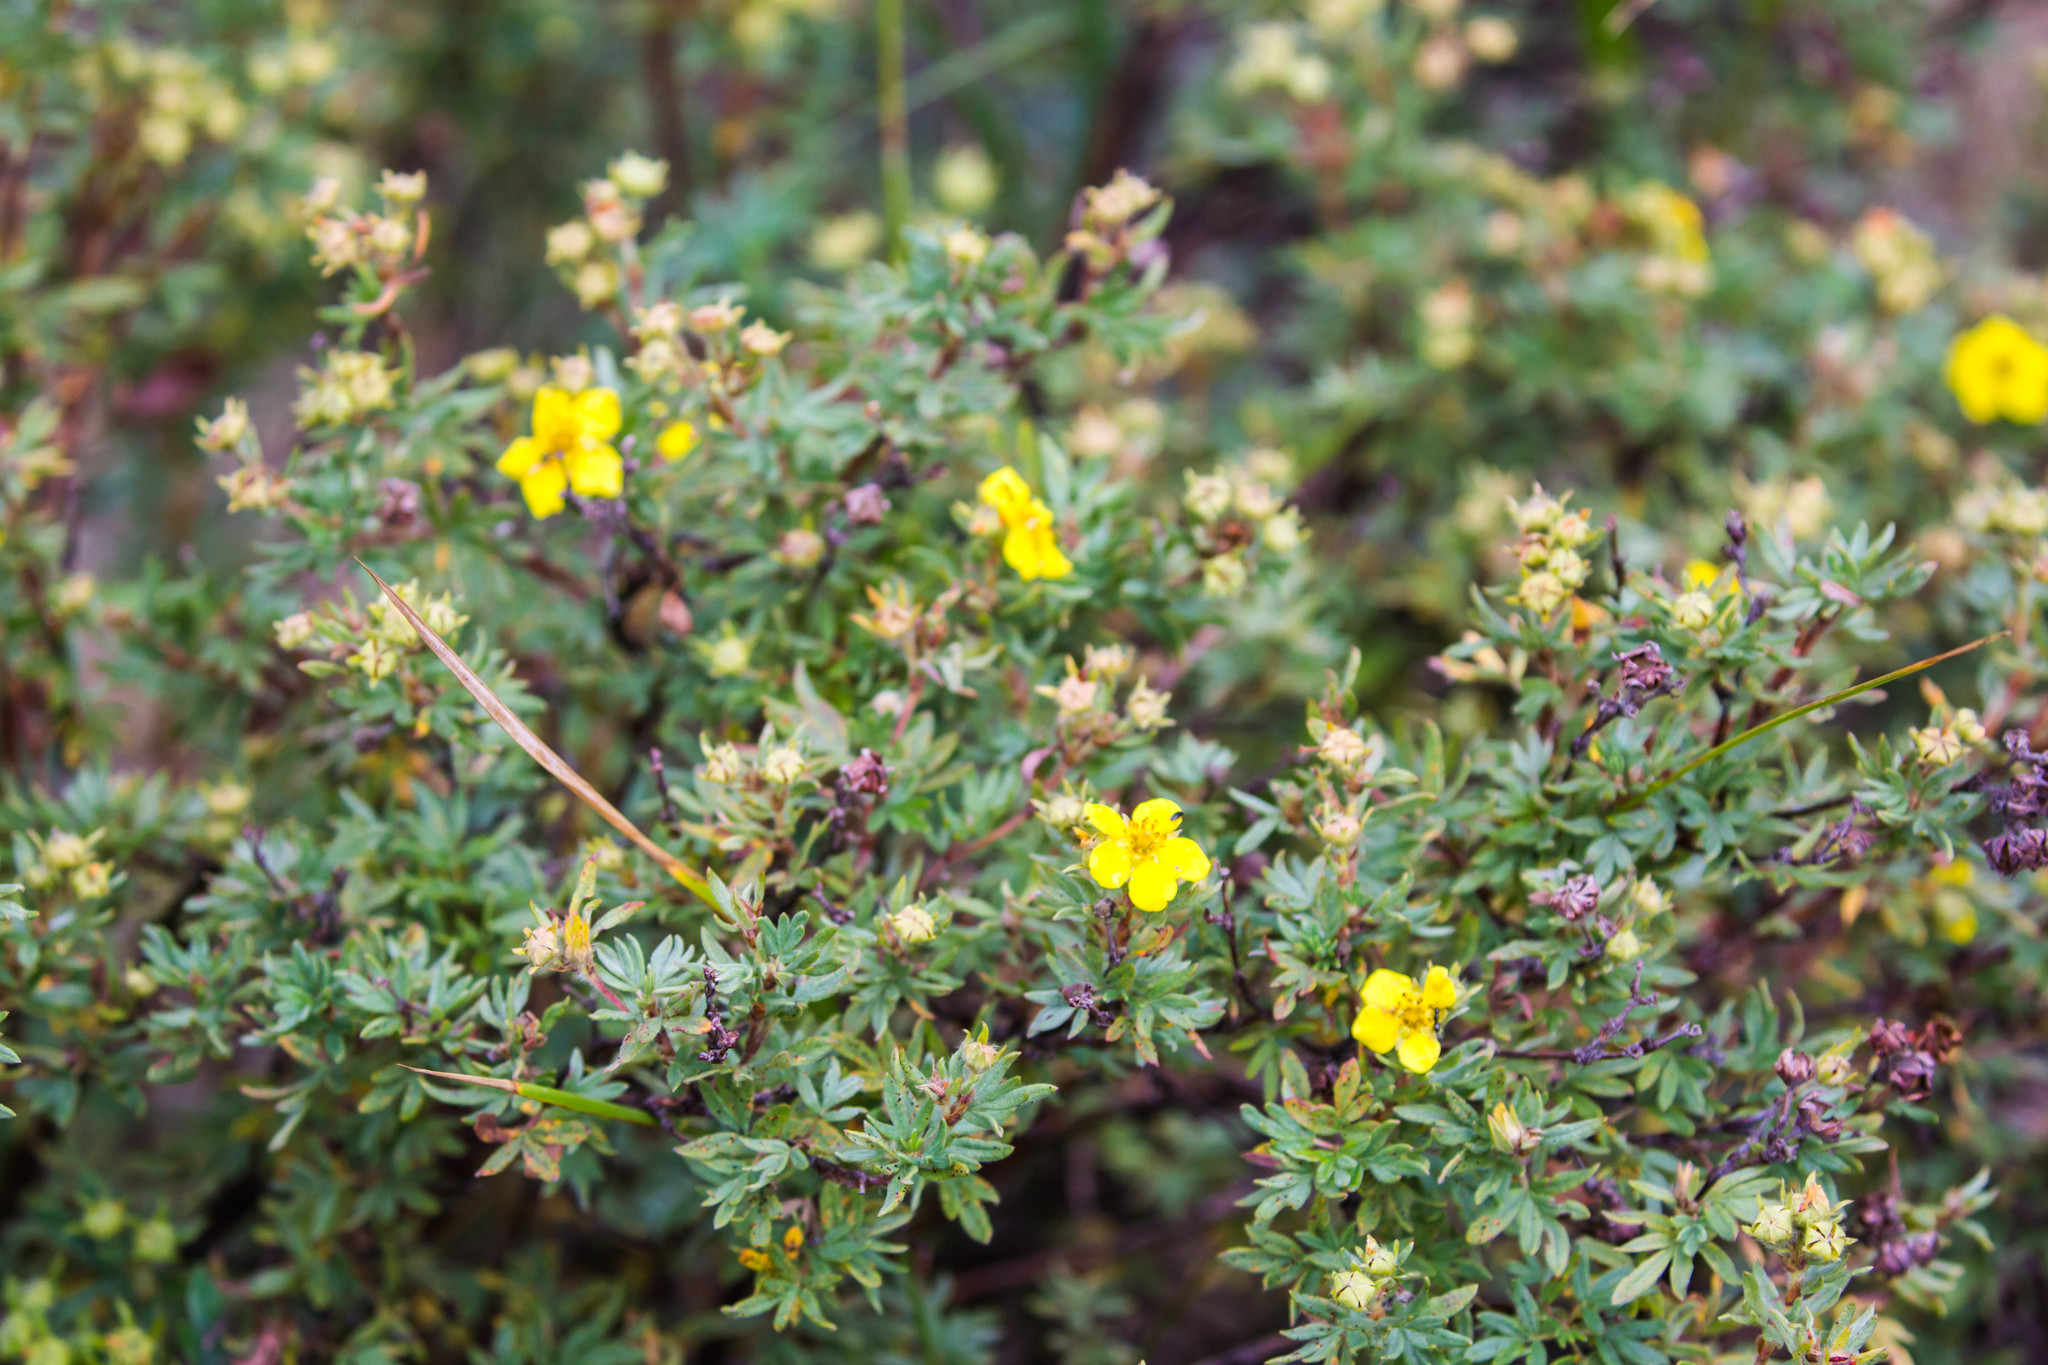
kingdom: Plantae
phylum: Tracheophyta
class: Magnoliopsida
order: Rosales
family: Rosaceae
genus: Dasiphora
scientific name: Dasiphora fruticosa
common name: Shrubby cinquefoil
